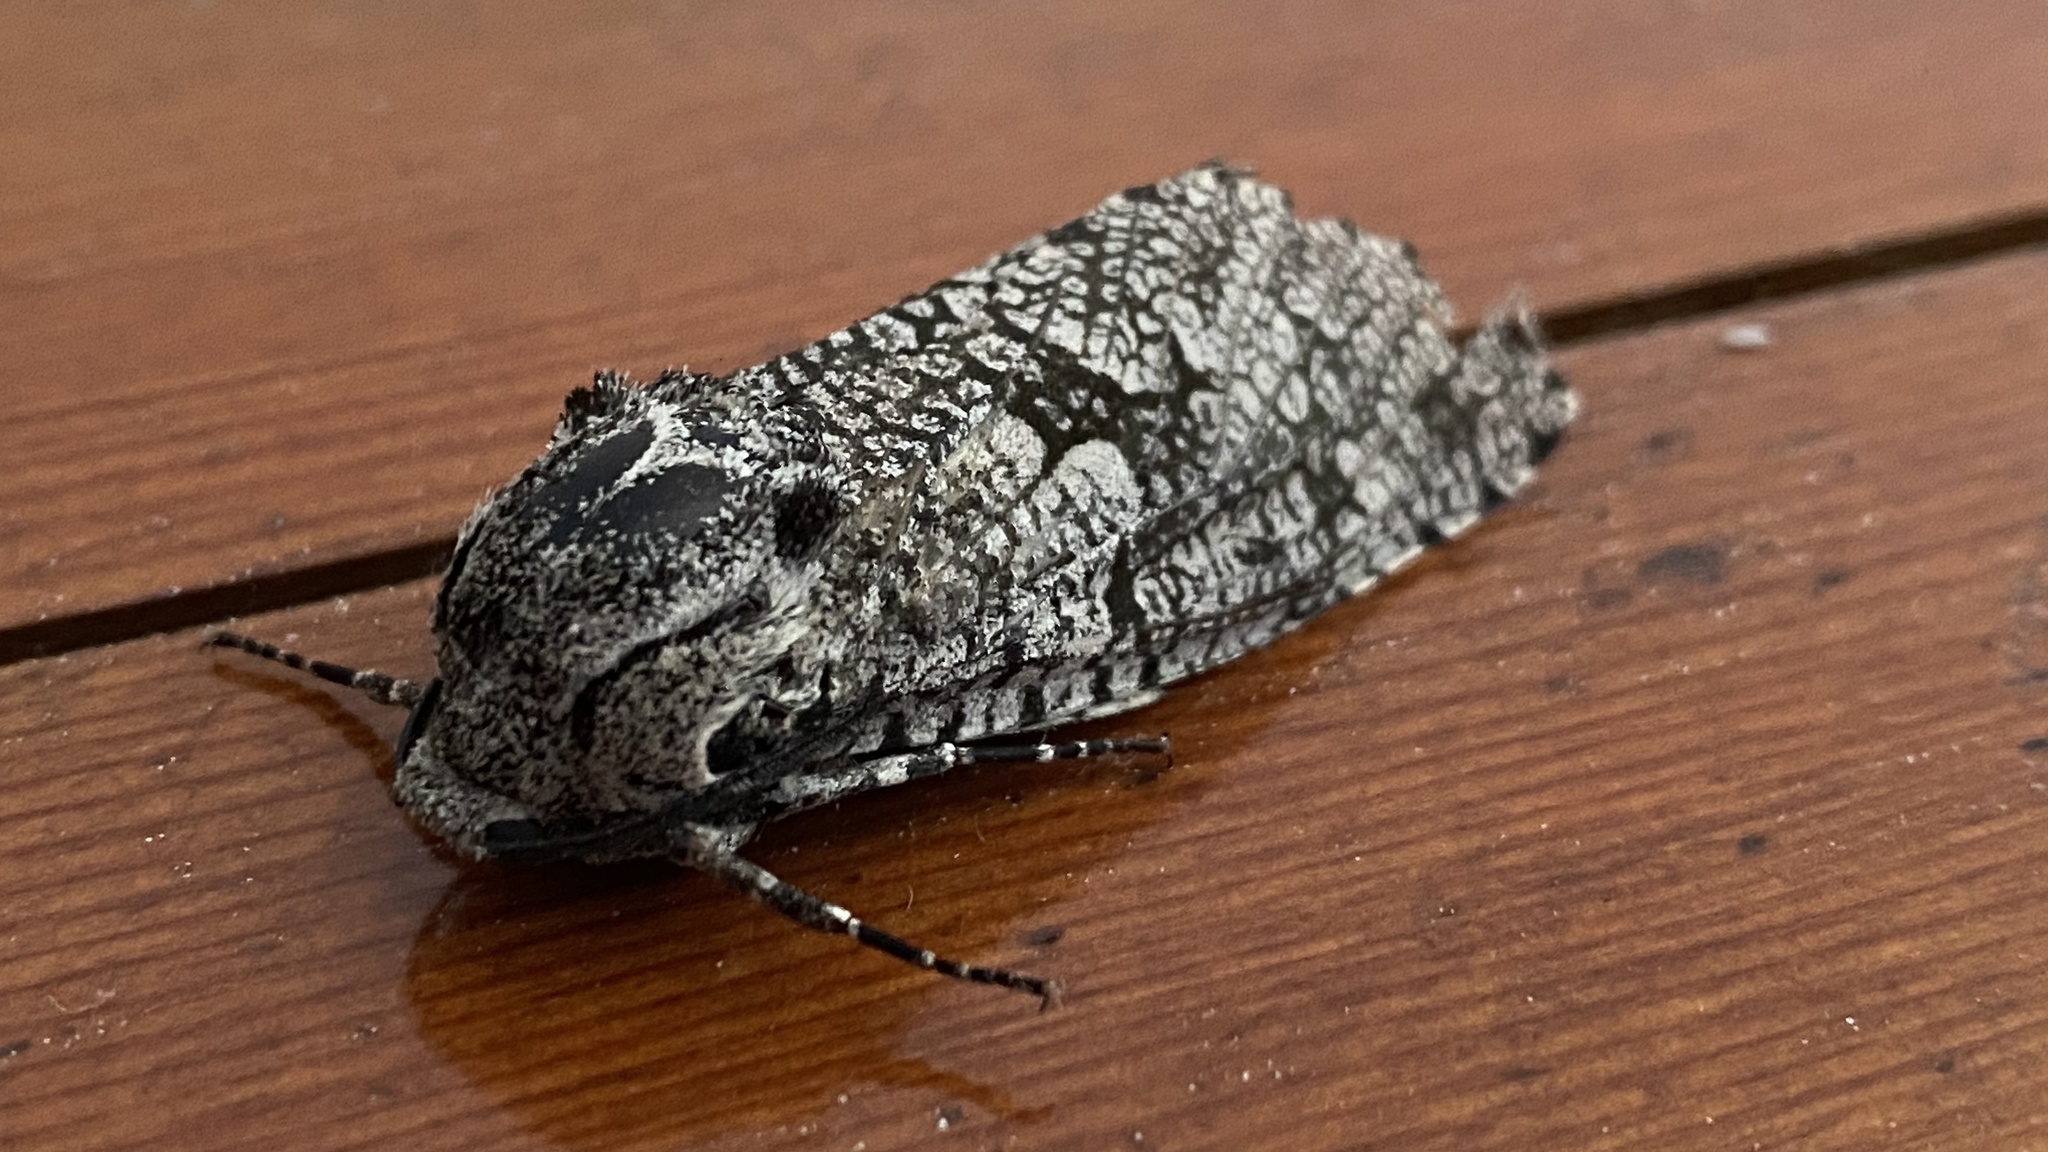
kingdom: Animalia
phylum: Arthropoda
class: Insecta
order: Lepidoptera
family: Cossidae
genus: Prionoxystus
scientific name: Prionoxystus robiniae
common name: Carpenterworm
